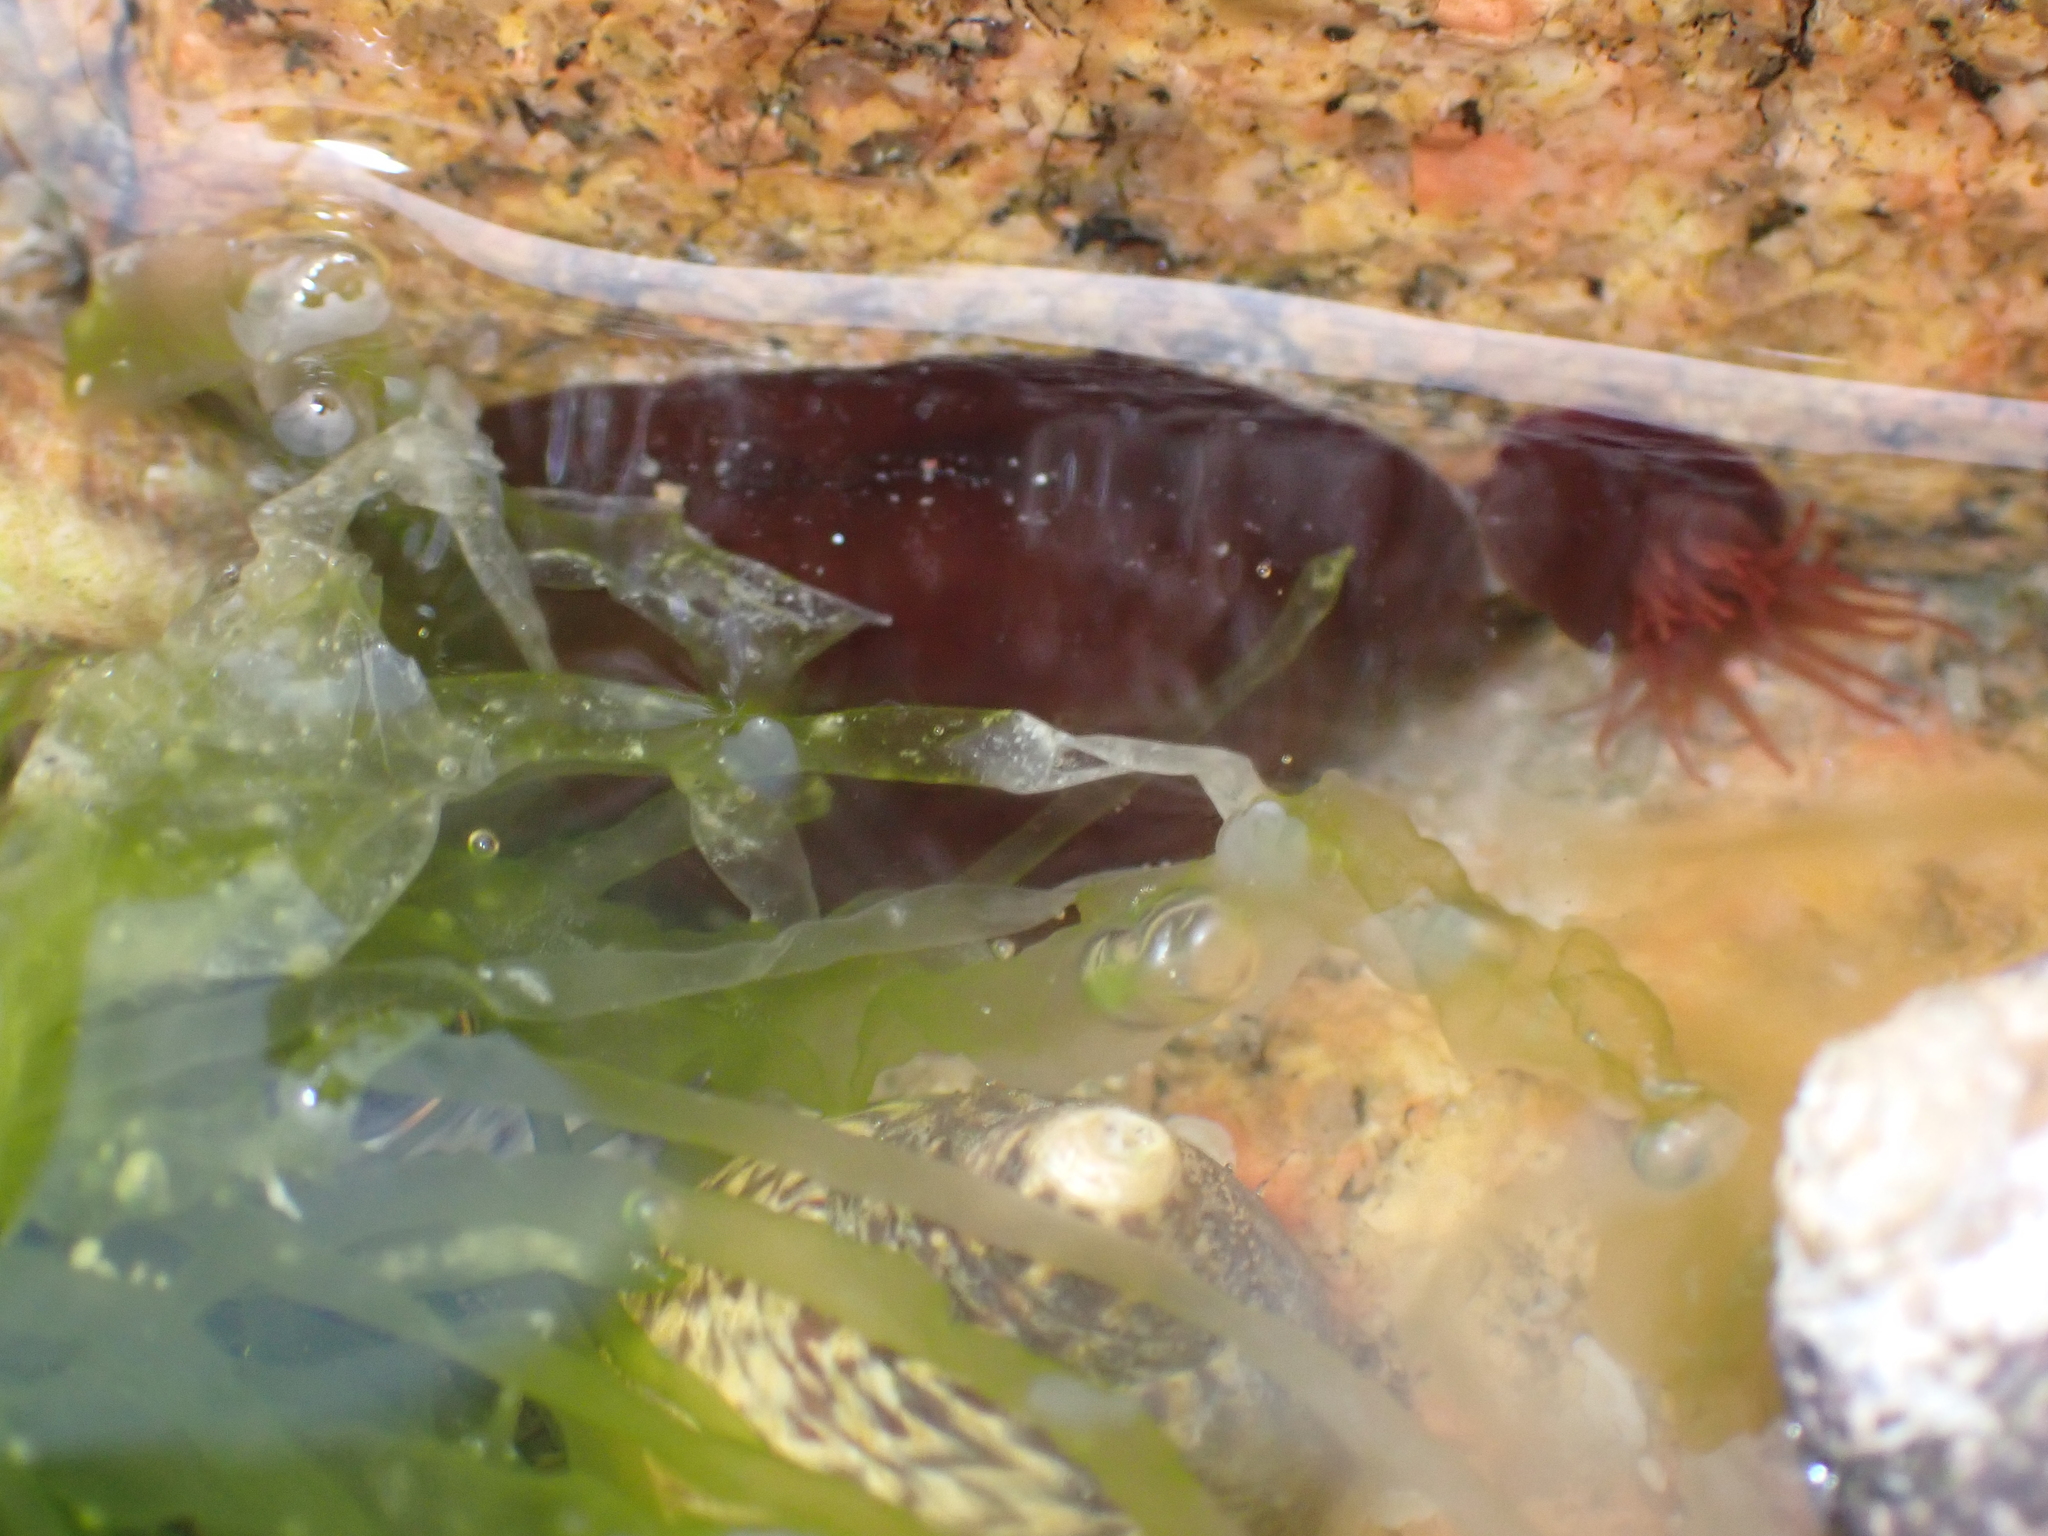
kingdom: Animalia
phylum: Cnidaria
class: Anthozoa
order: Actiniaria
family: Actiniidae
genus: Actinia
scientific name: Actinia equina
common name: Beadlet anemone
